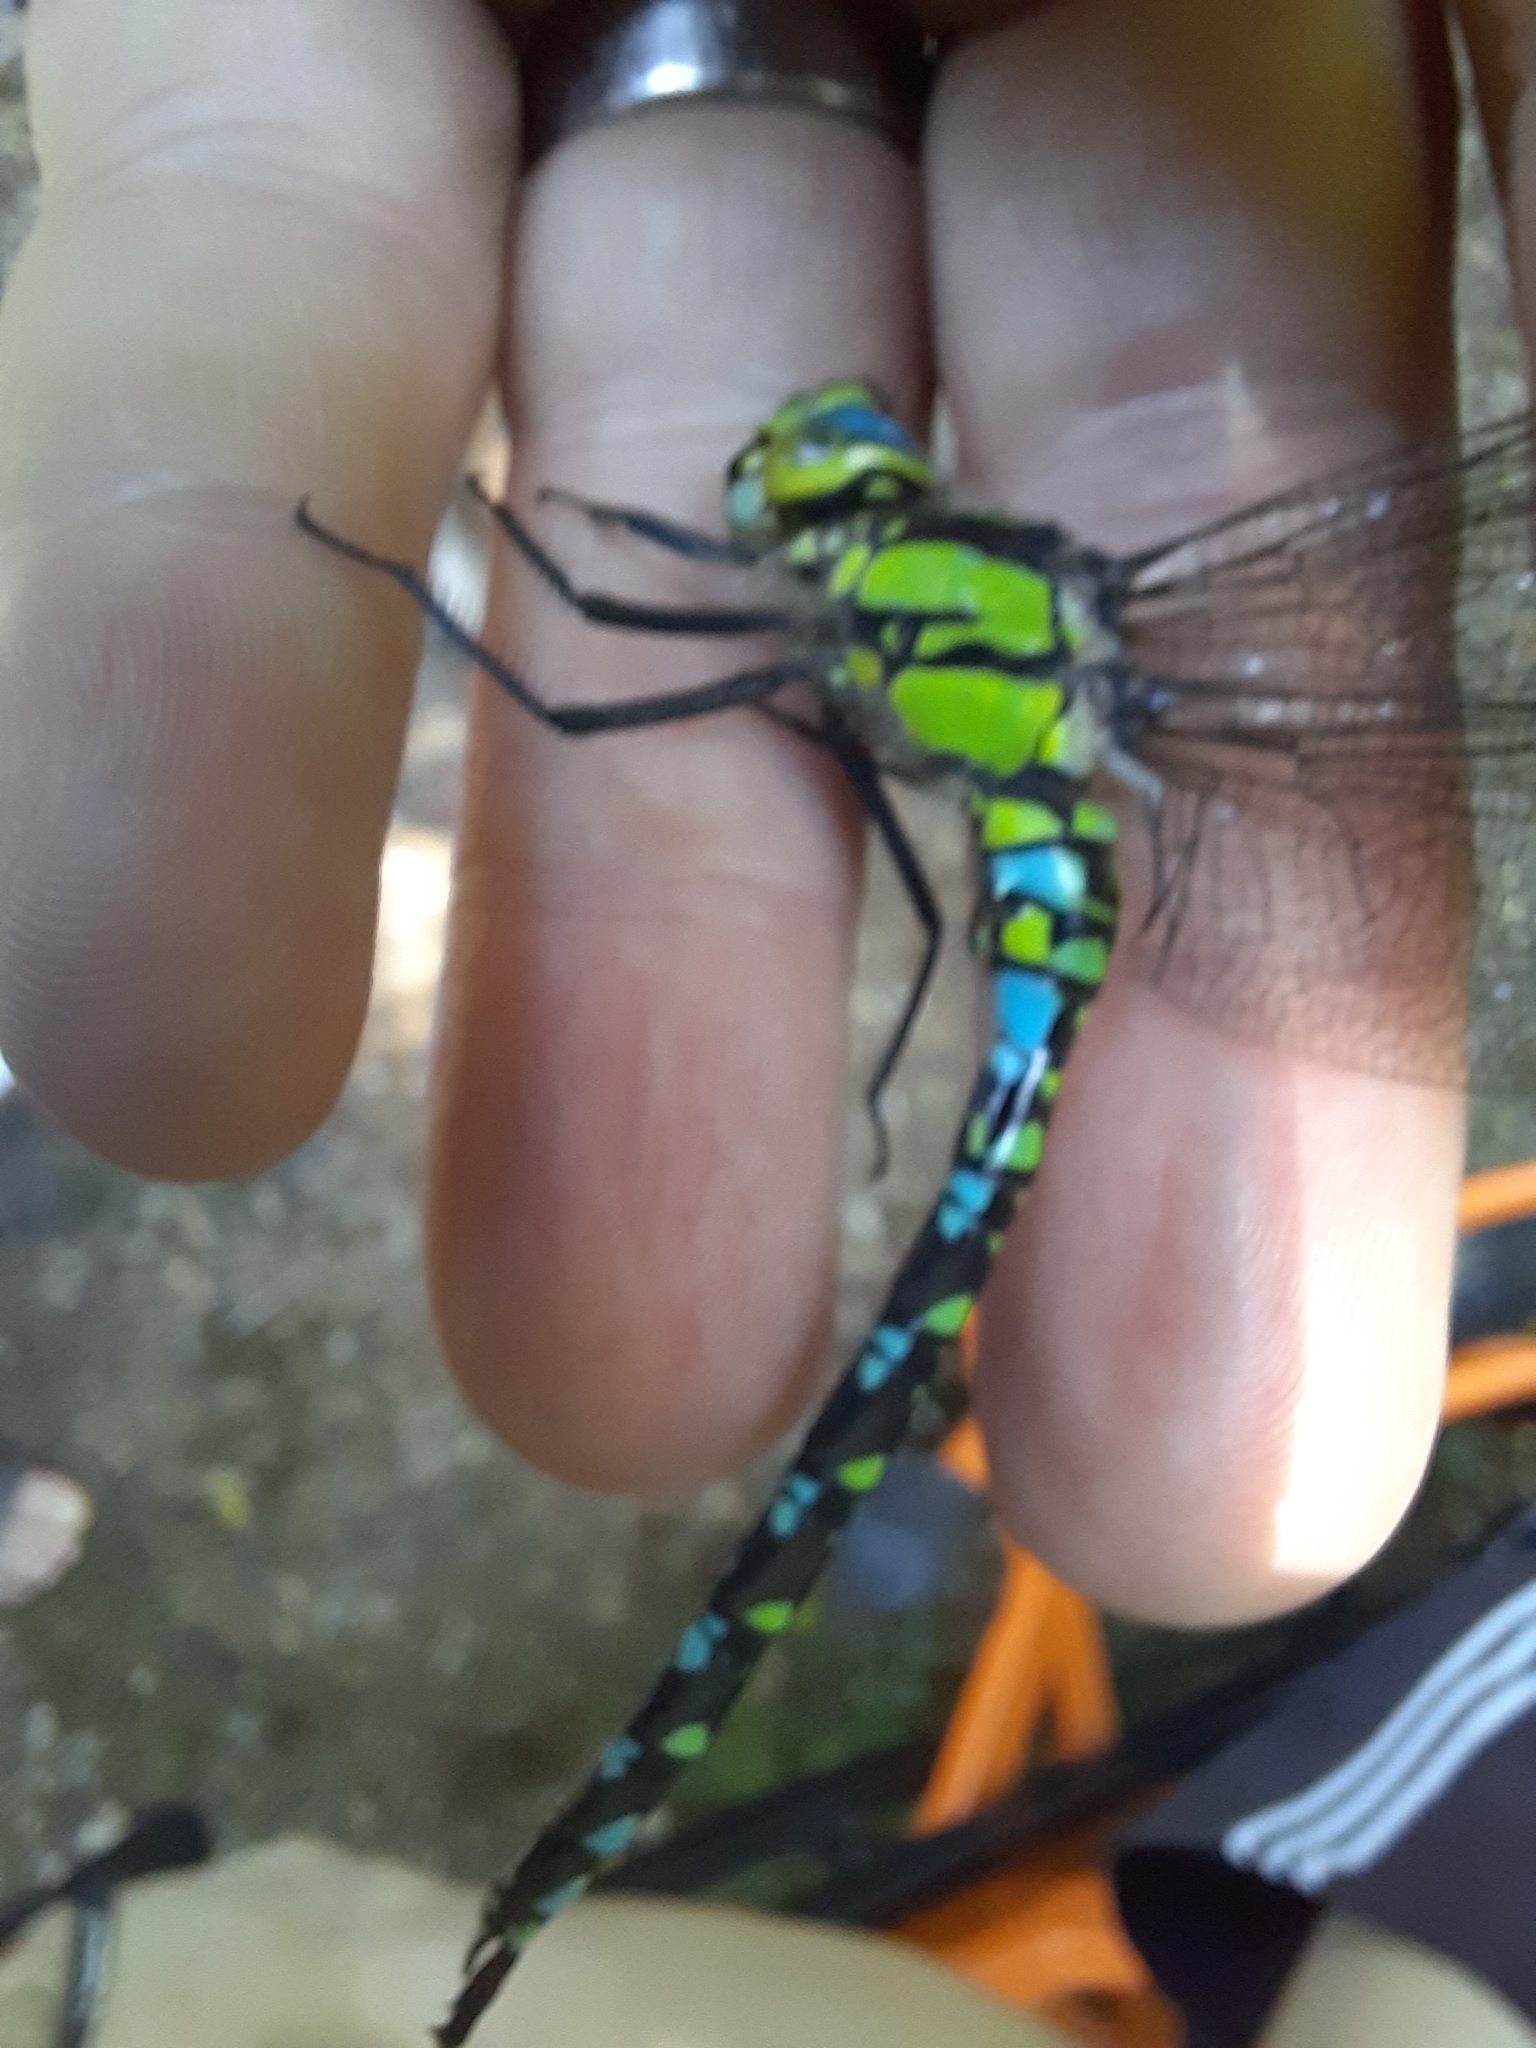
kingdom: Animalia
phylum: Arthropoda
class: Insecta
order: Odonata
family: Aeshnidae
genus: Aeshna
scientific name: Aeshna cyanea
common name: Southern hawker
